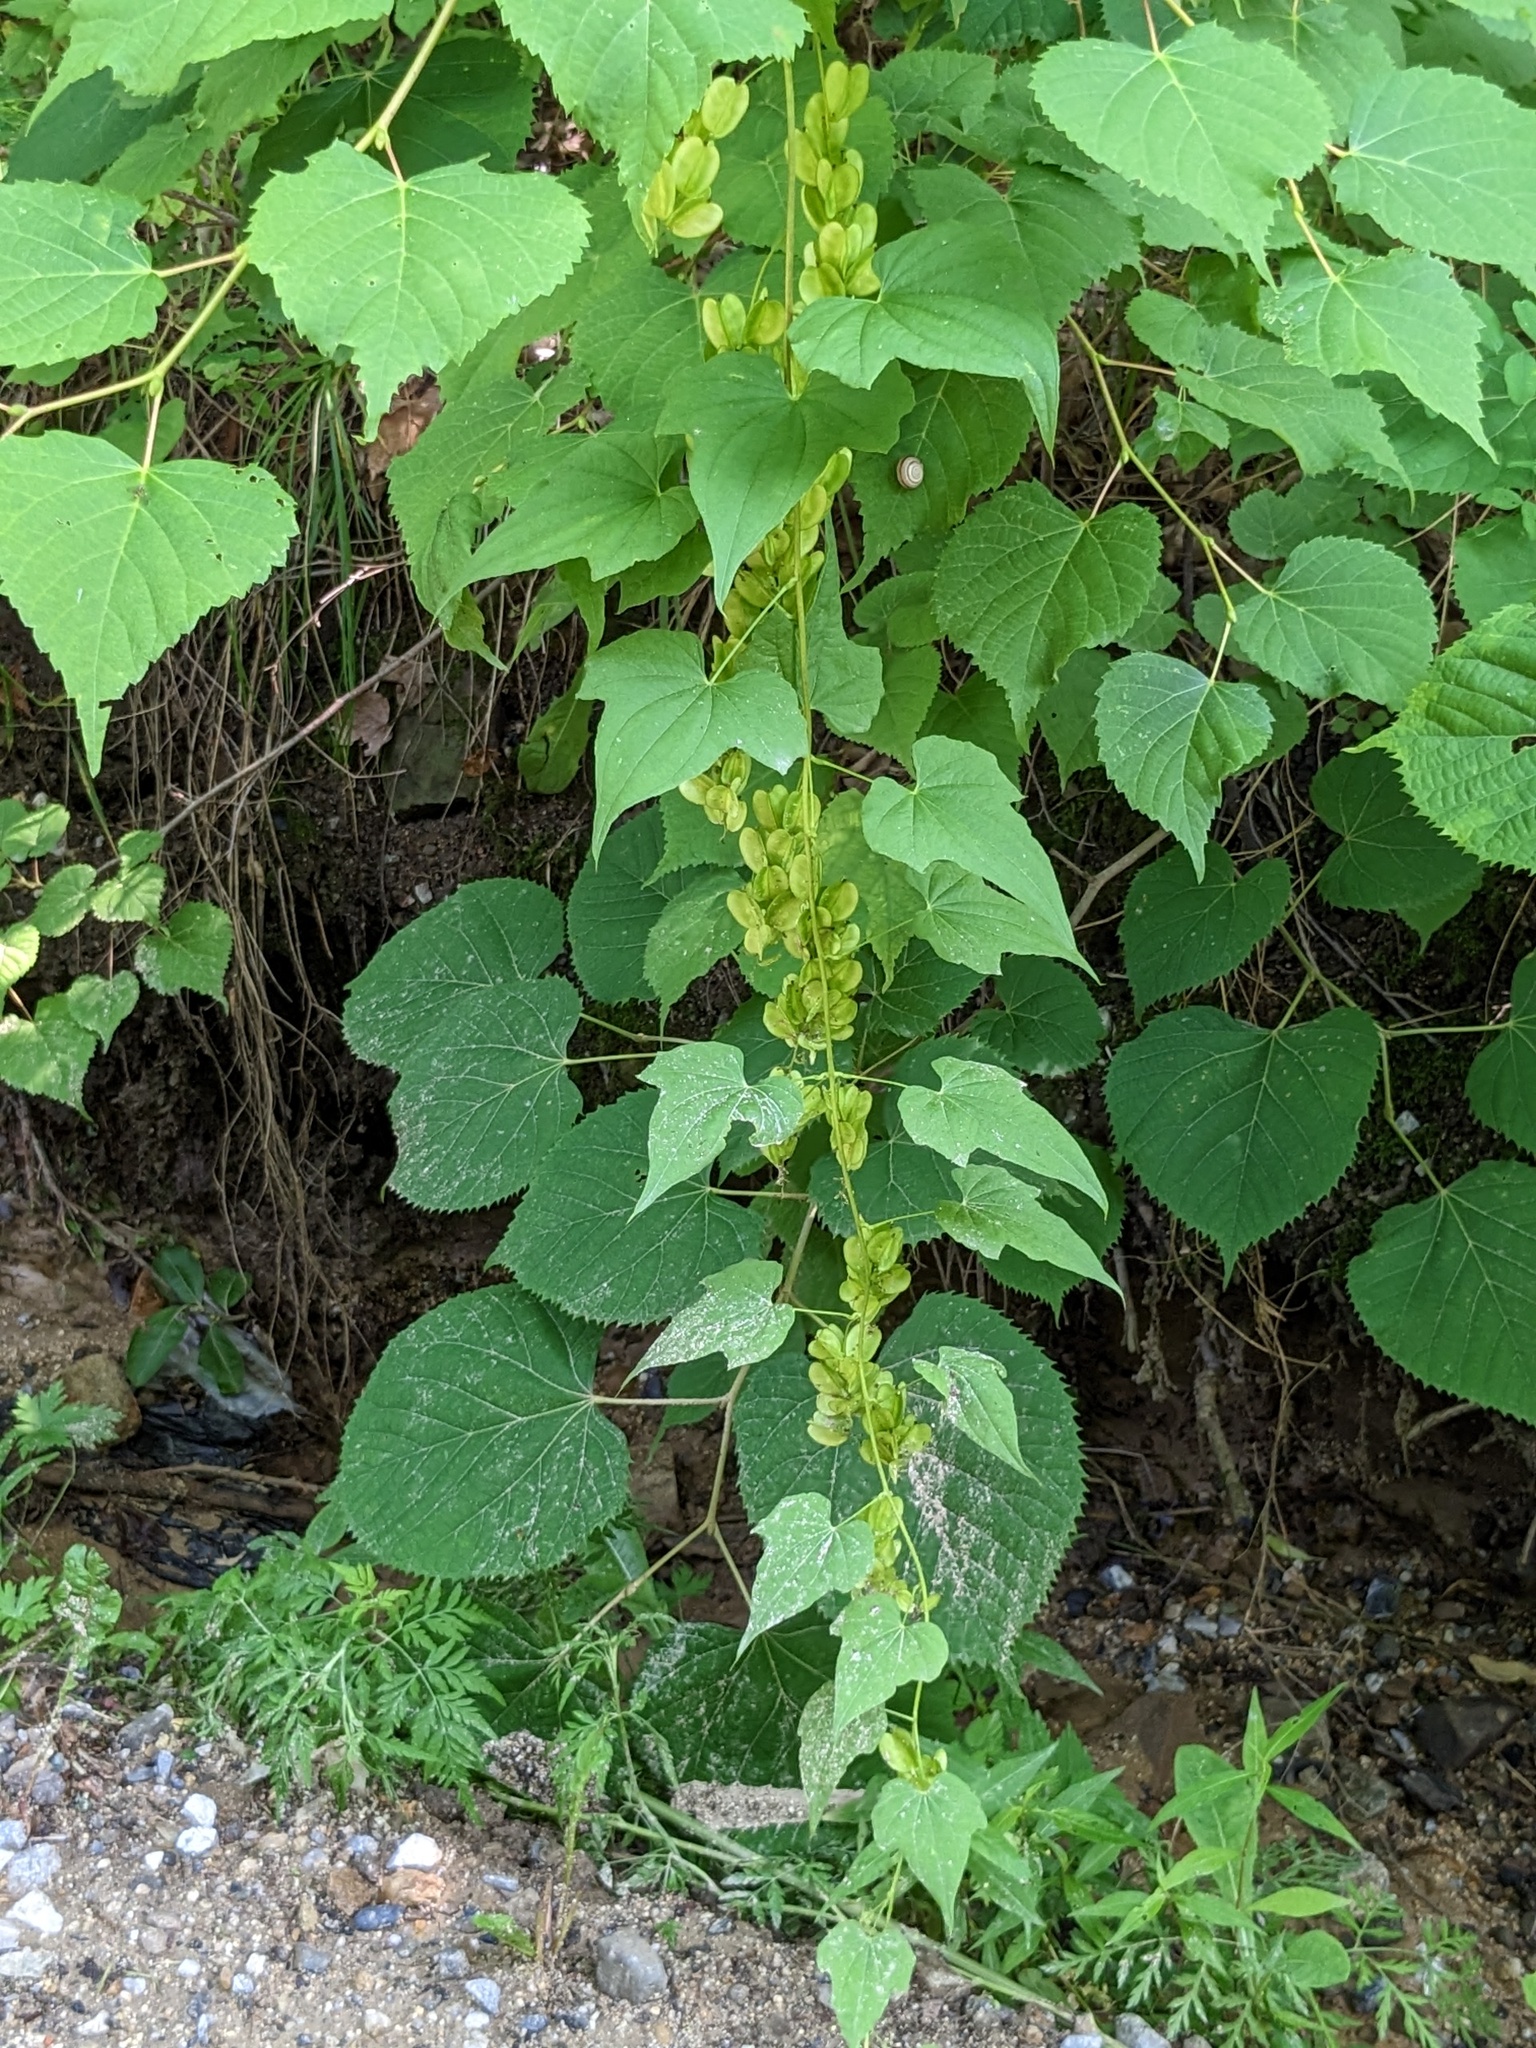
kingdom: Plantae
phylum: Tracheophyta
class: Liliopsida
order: Dioscoreales
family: Dioscoreaceae
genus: Dioscorea
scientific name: Dioscorea nipponica
